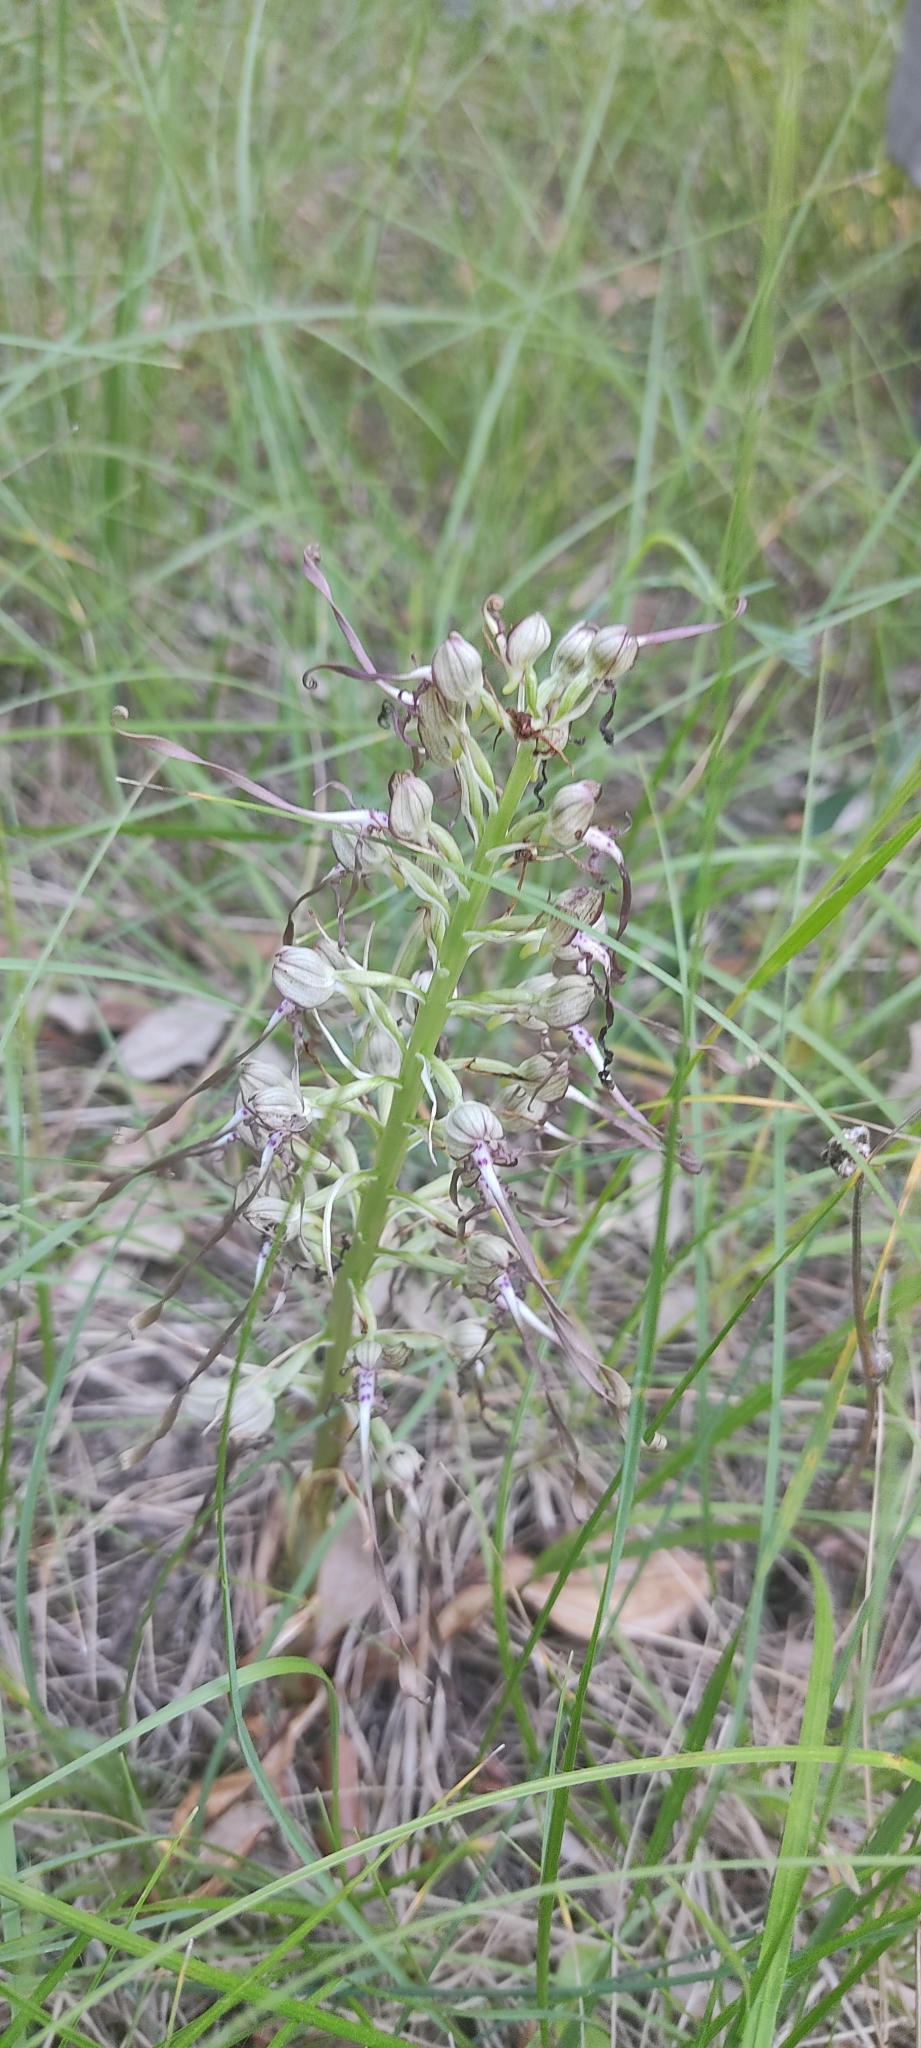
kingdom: Plantae
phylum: Tracheophyta
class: Liliopsida
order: Asparagales
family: Orchidaceae
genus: Himantoglossum
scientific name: Himantoglossum hircinum
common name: Lizard orchid
